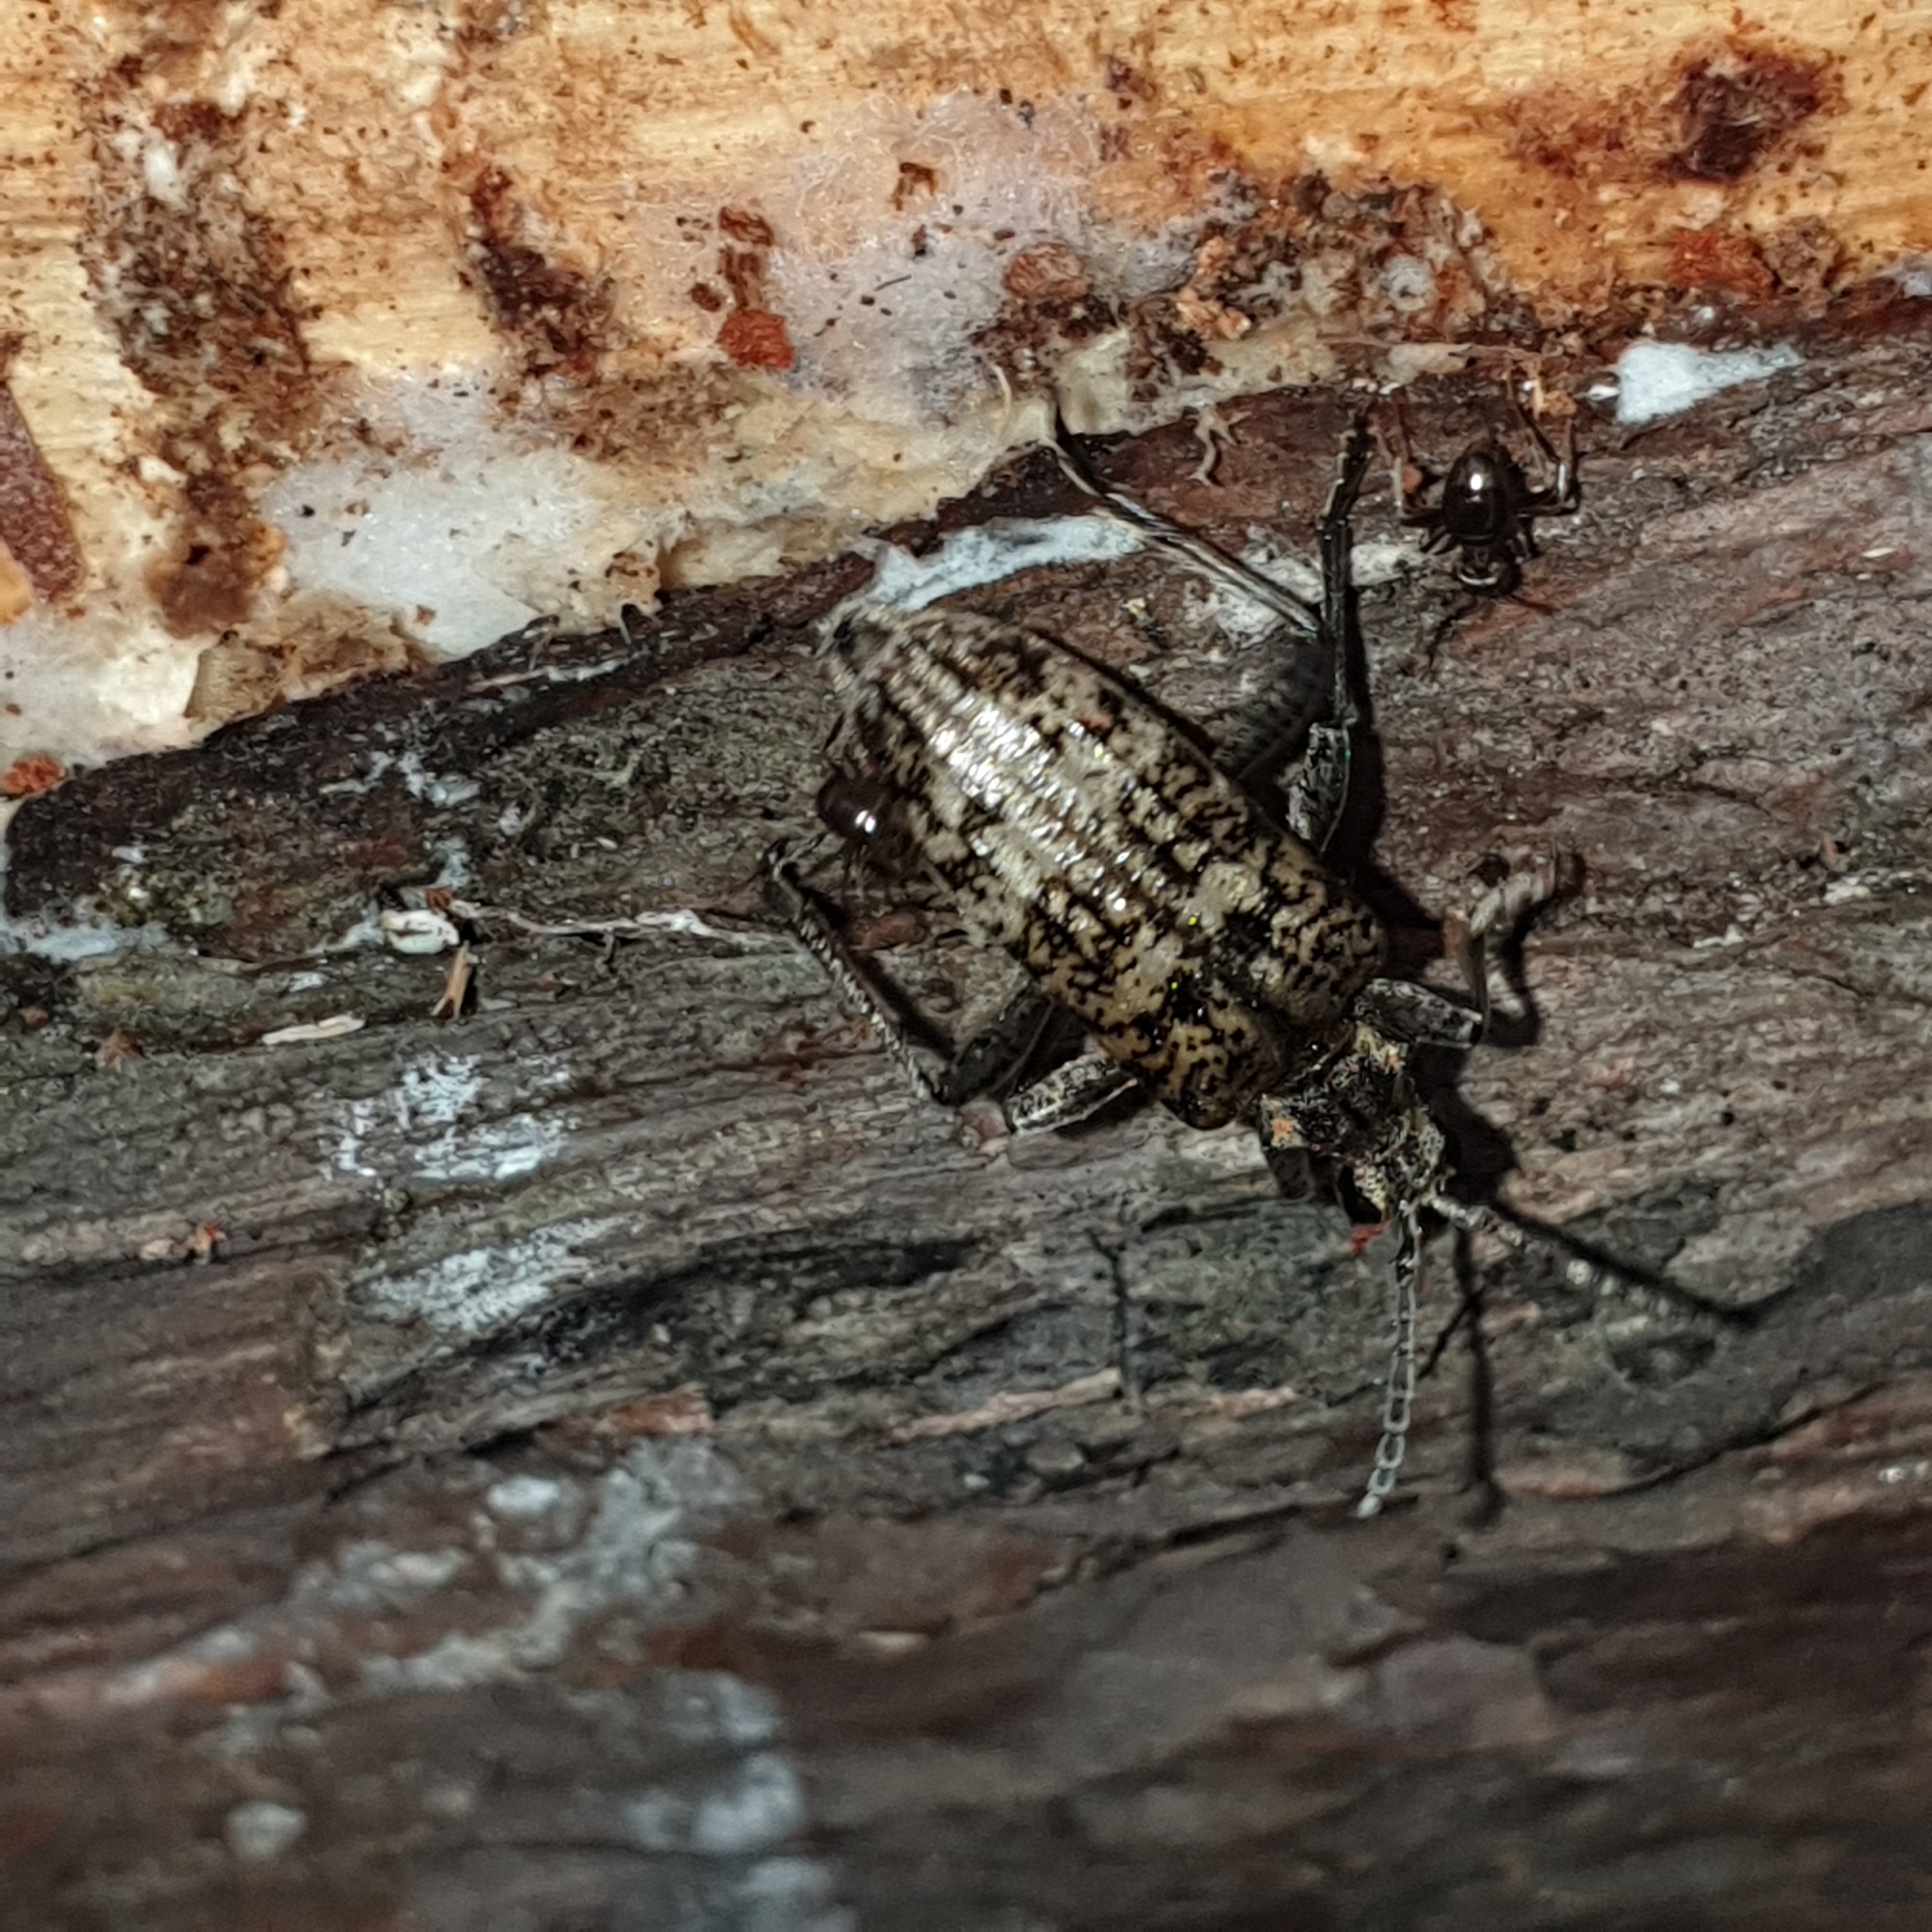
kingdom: Animalia
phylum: Arthropoda
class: Insecta
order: Coleoptera
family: Cerambycidae
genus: Rhagium
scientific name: Rhagium inquisitor
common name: Ribbed pine borer
